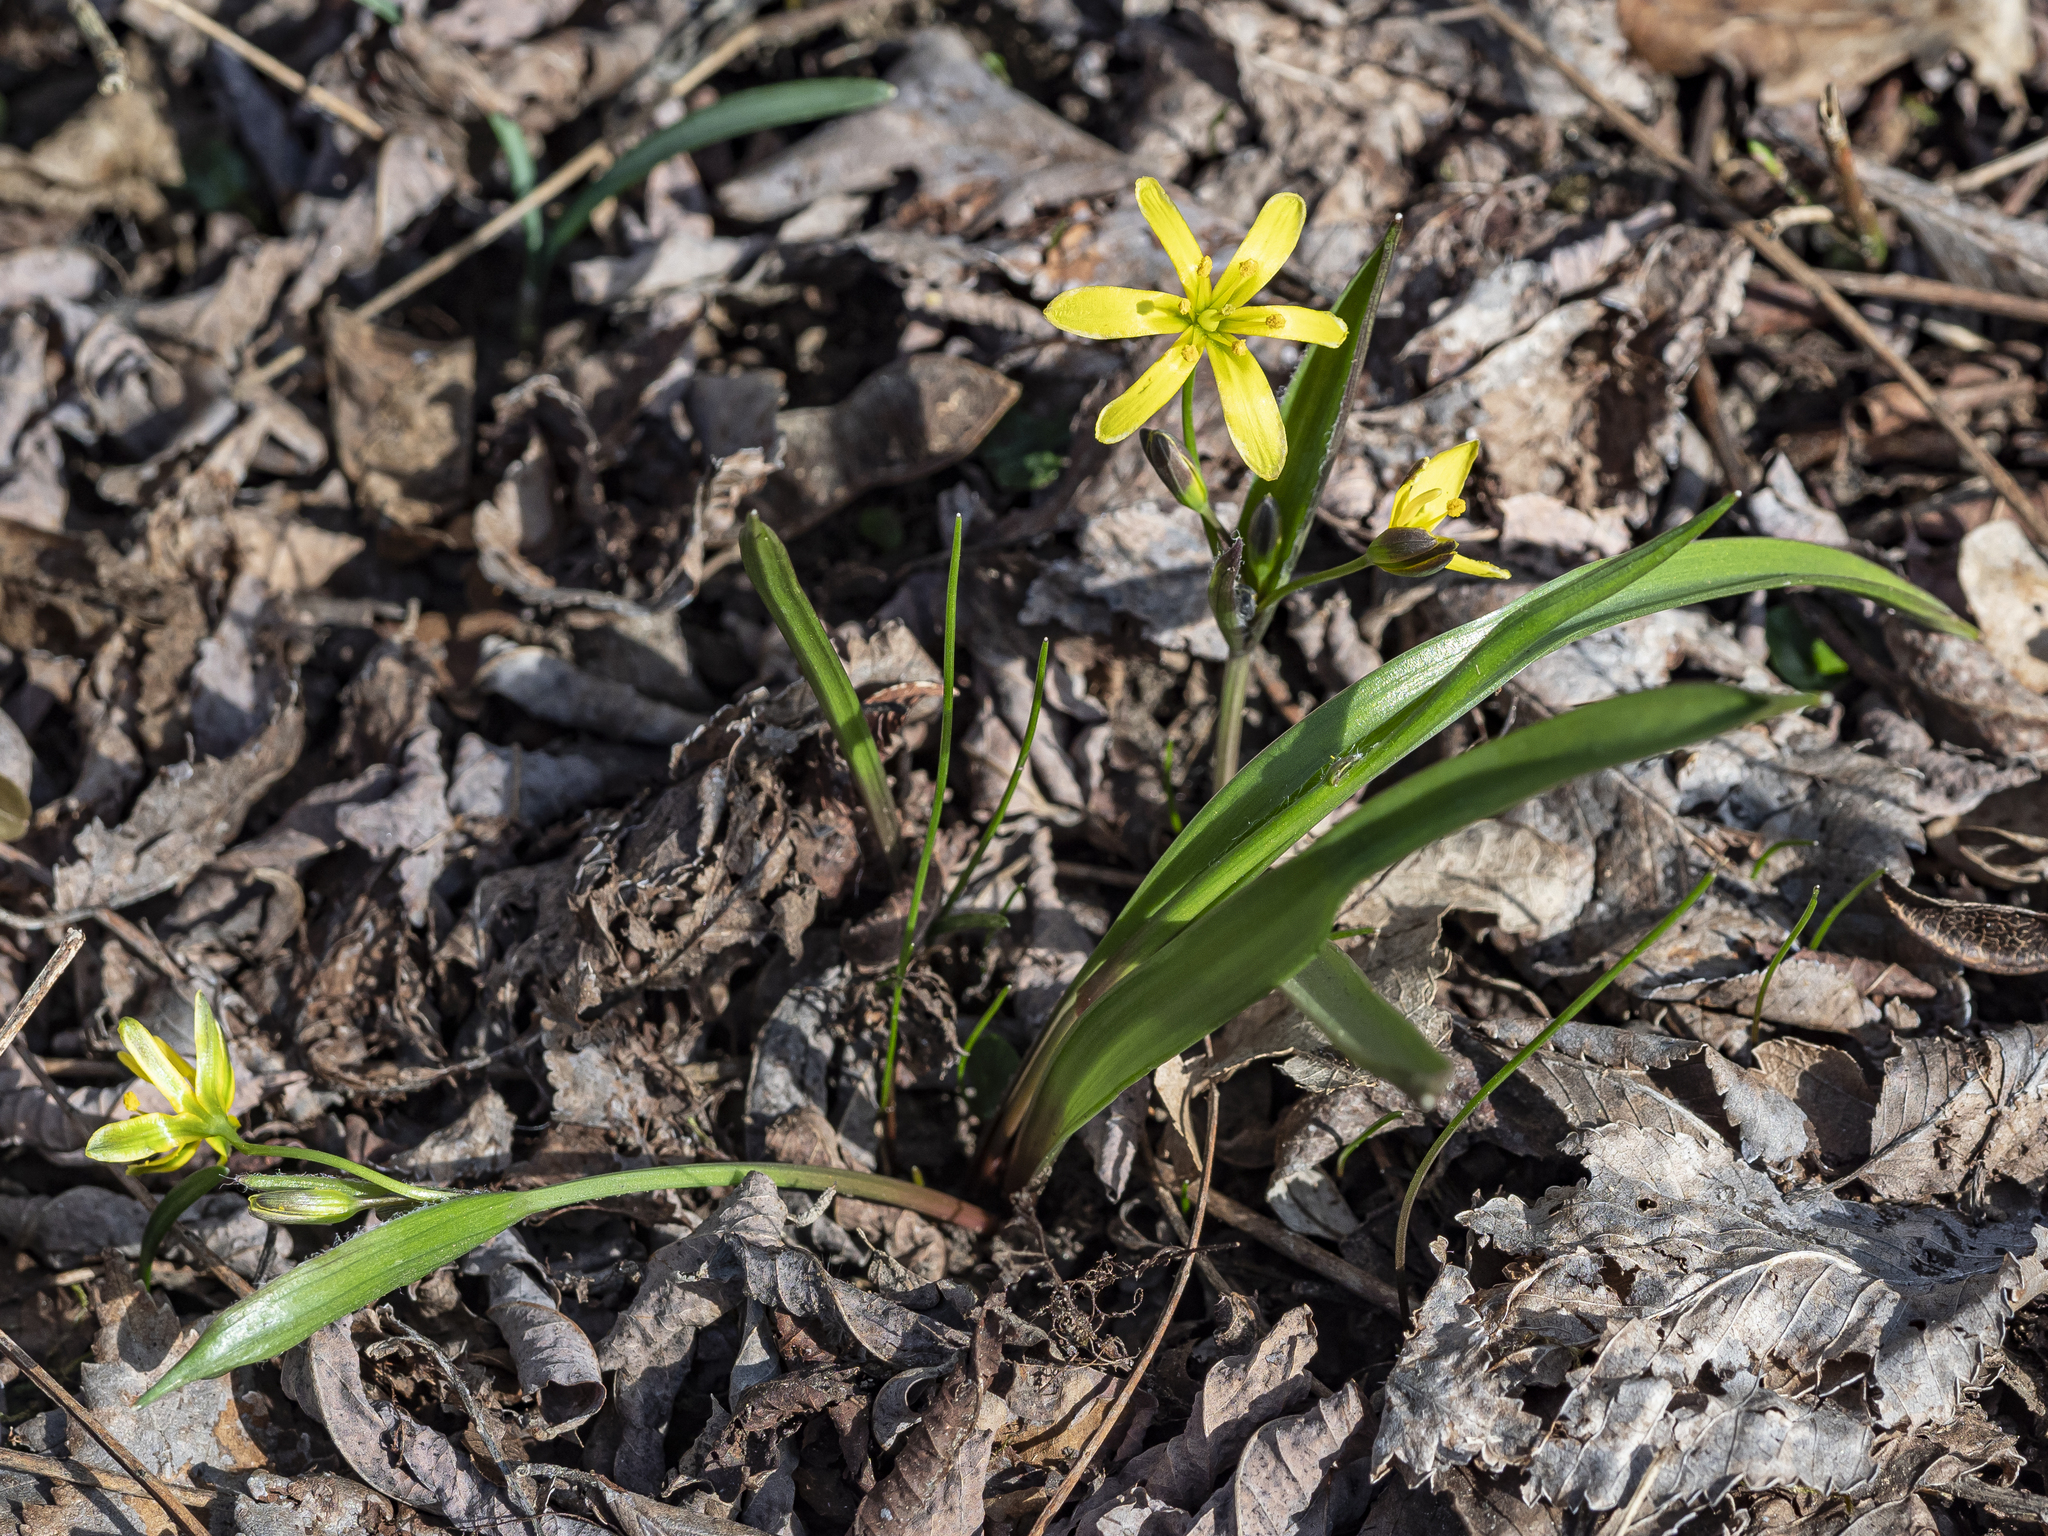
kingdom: Plantae
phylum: Tracheophyta
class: Liliopsida
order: Liliales
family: Liliaceae
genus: Gagea
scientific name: Gagea lutea
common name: Yellow star-of-bethlehem
